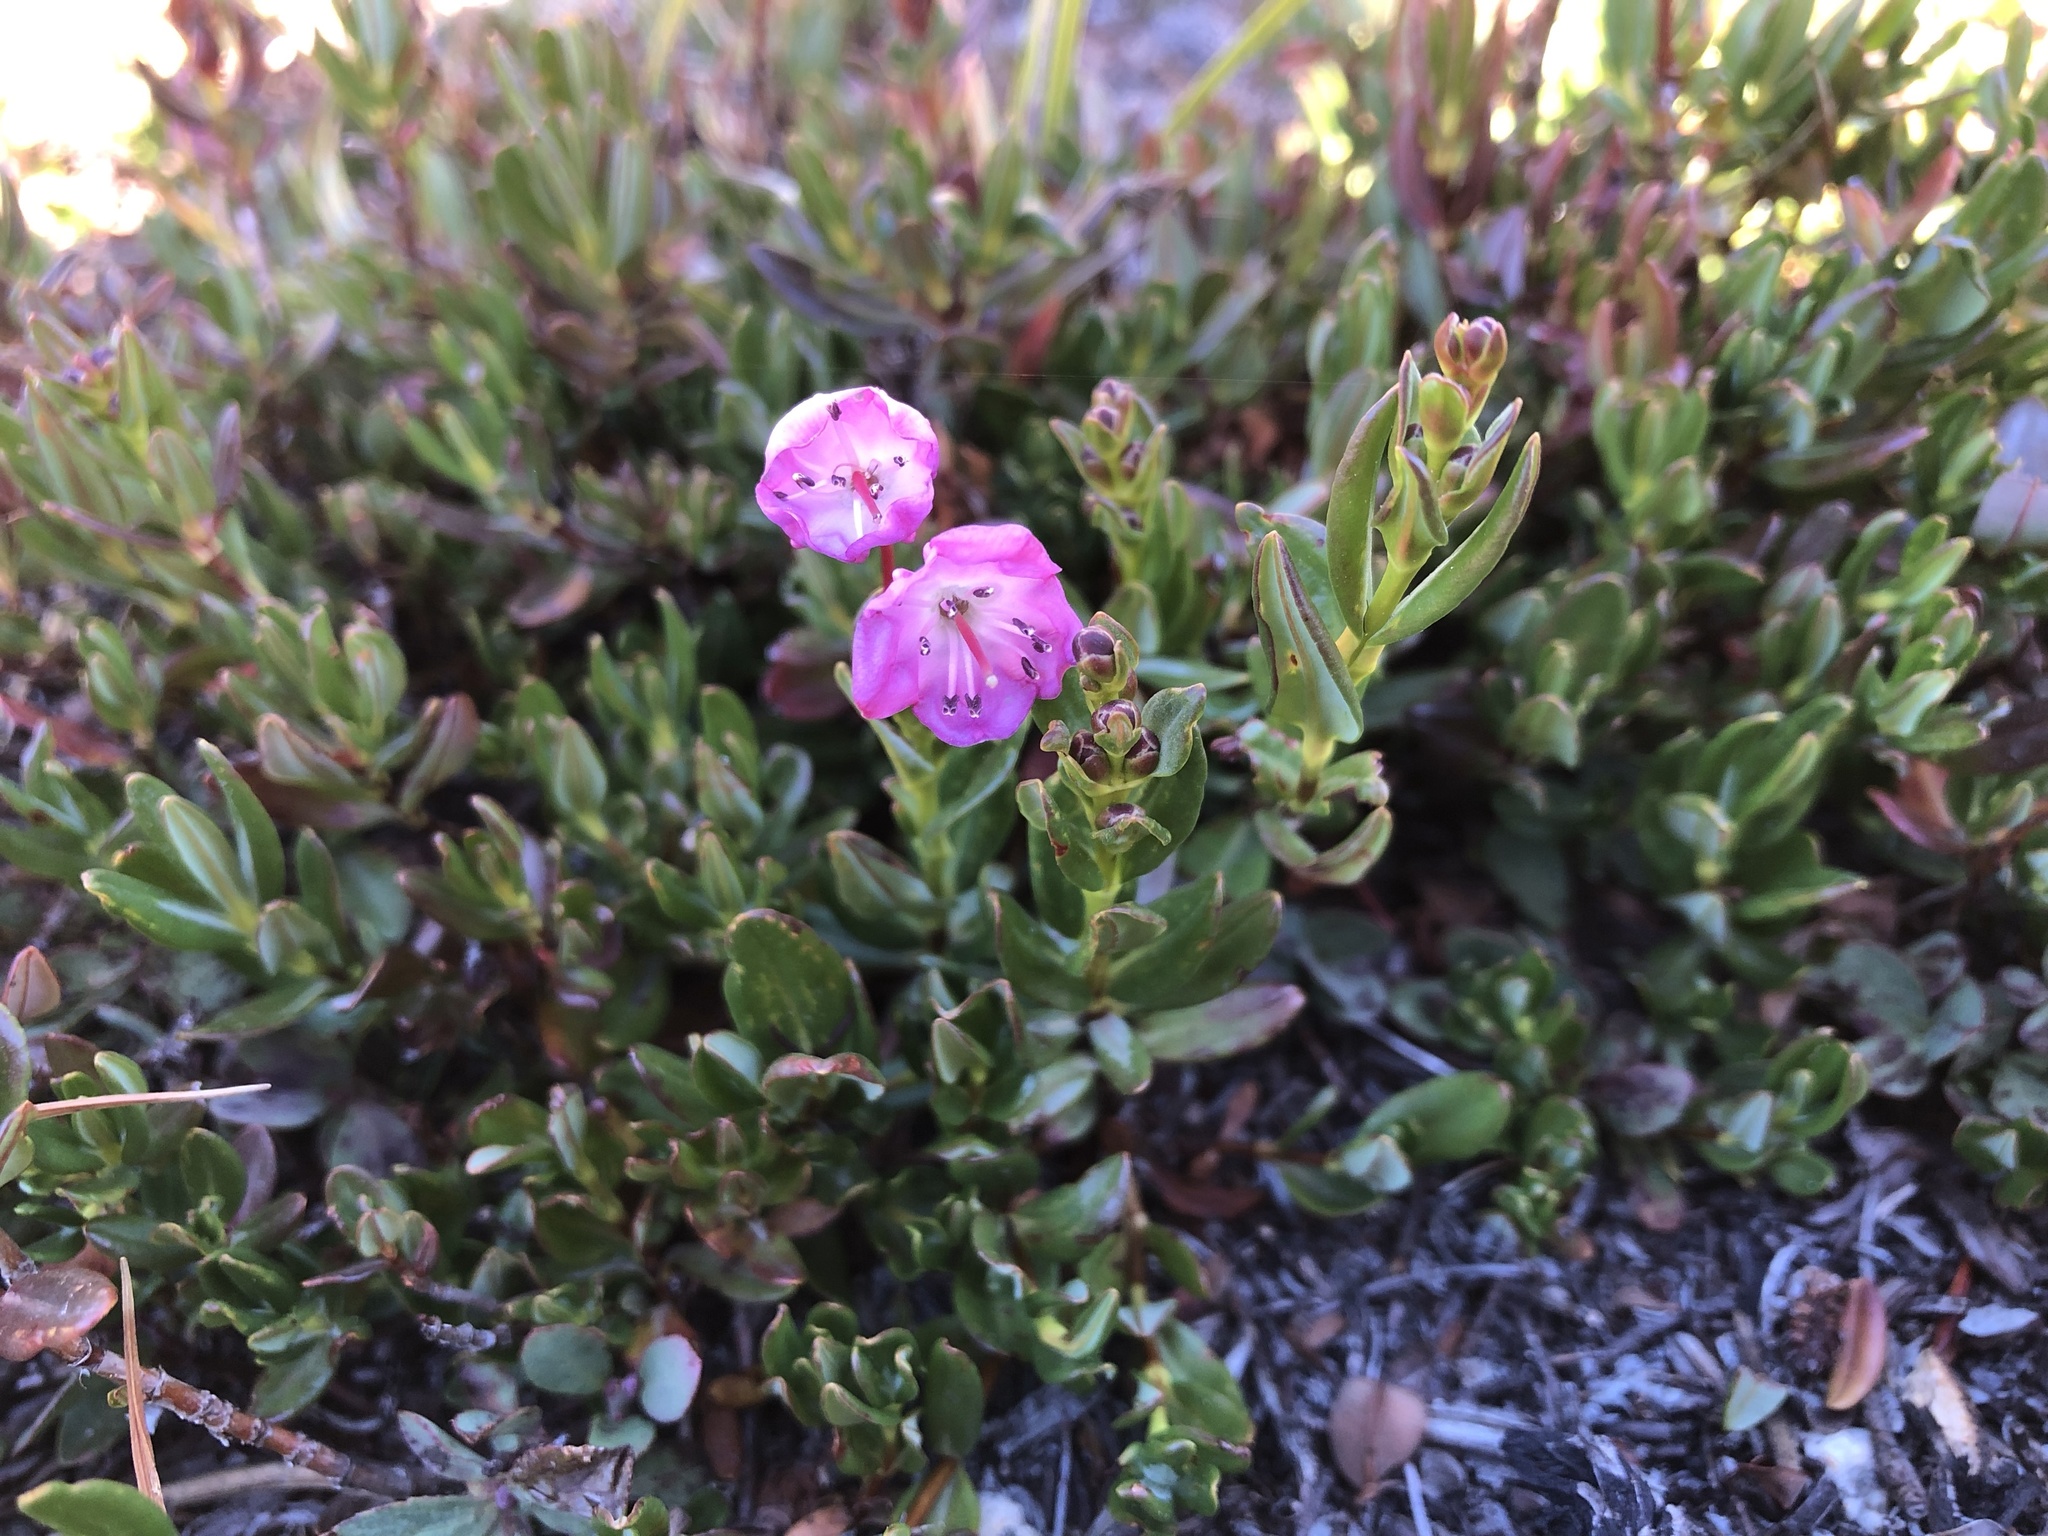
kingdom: Plantae
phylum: Tracheophyta
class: Magnoliopsida
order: Ericales
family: Ericaceae
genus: Kalmia
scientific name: Kalmia microphylla
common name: Alpine bog laurel
